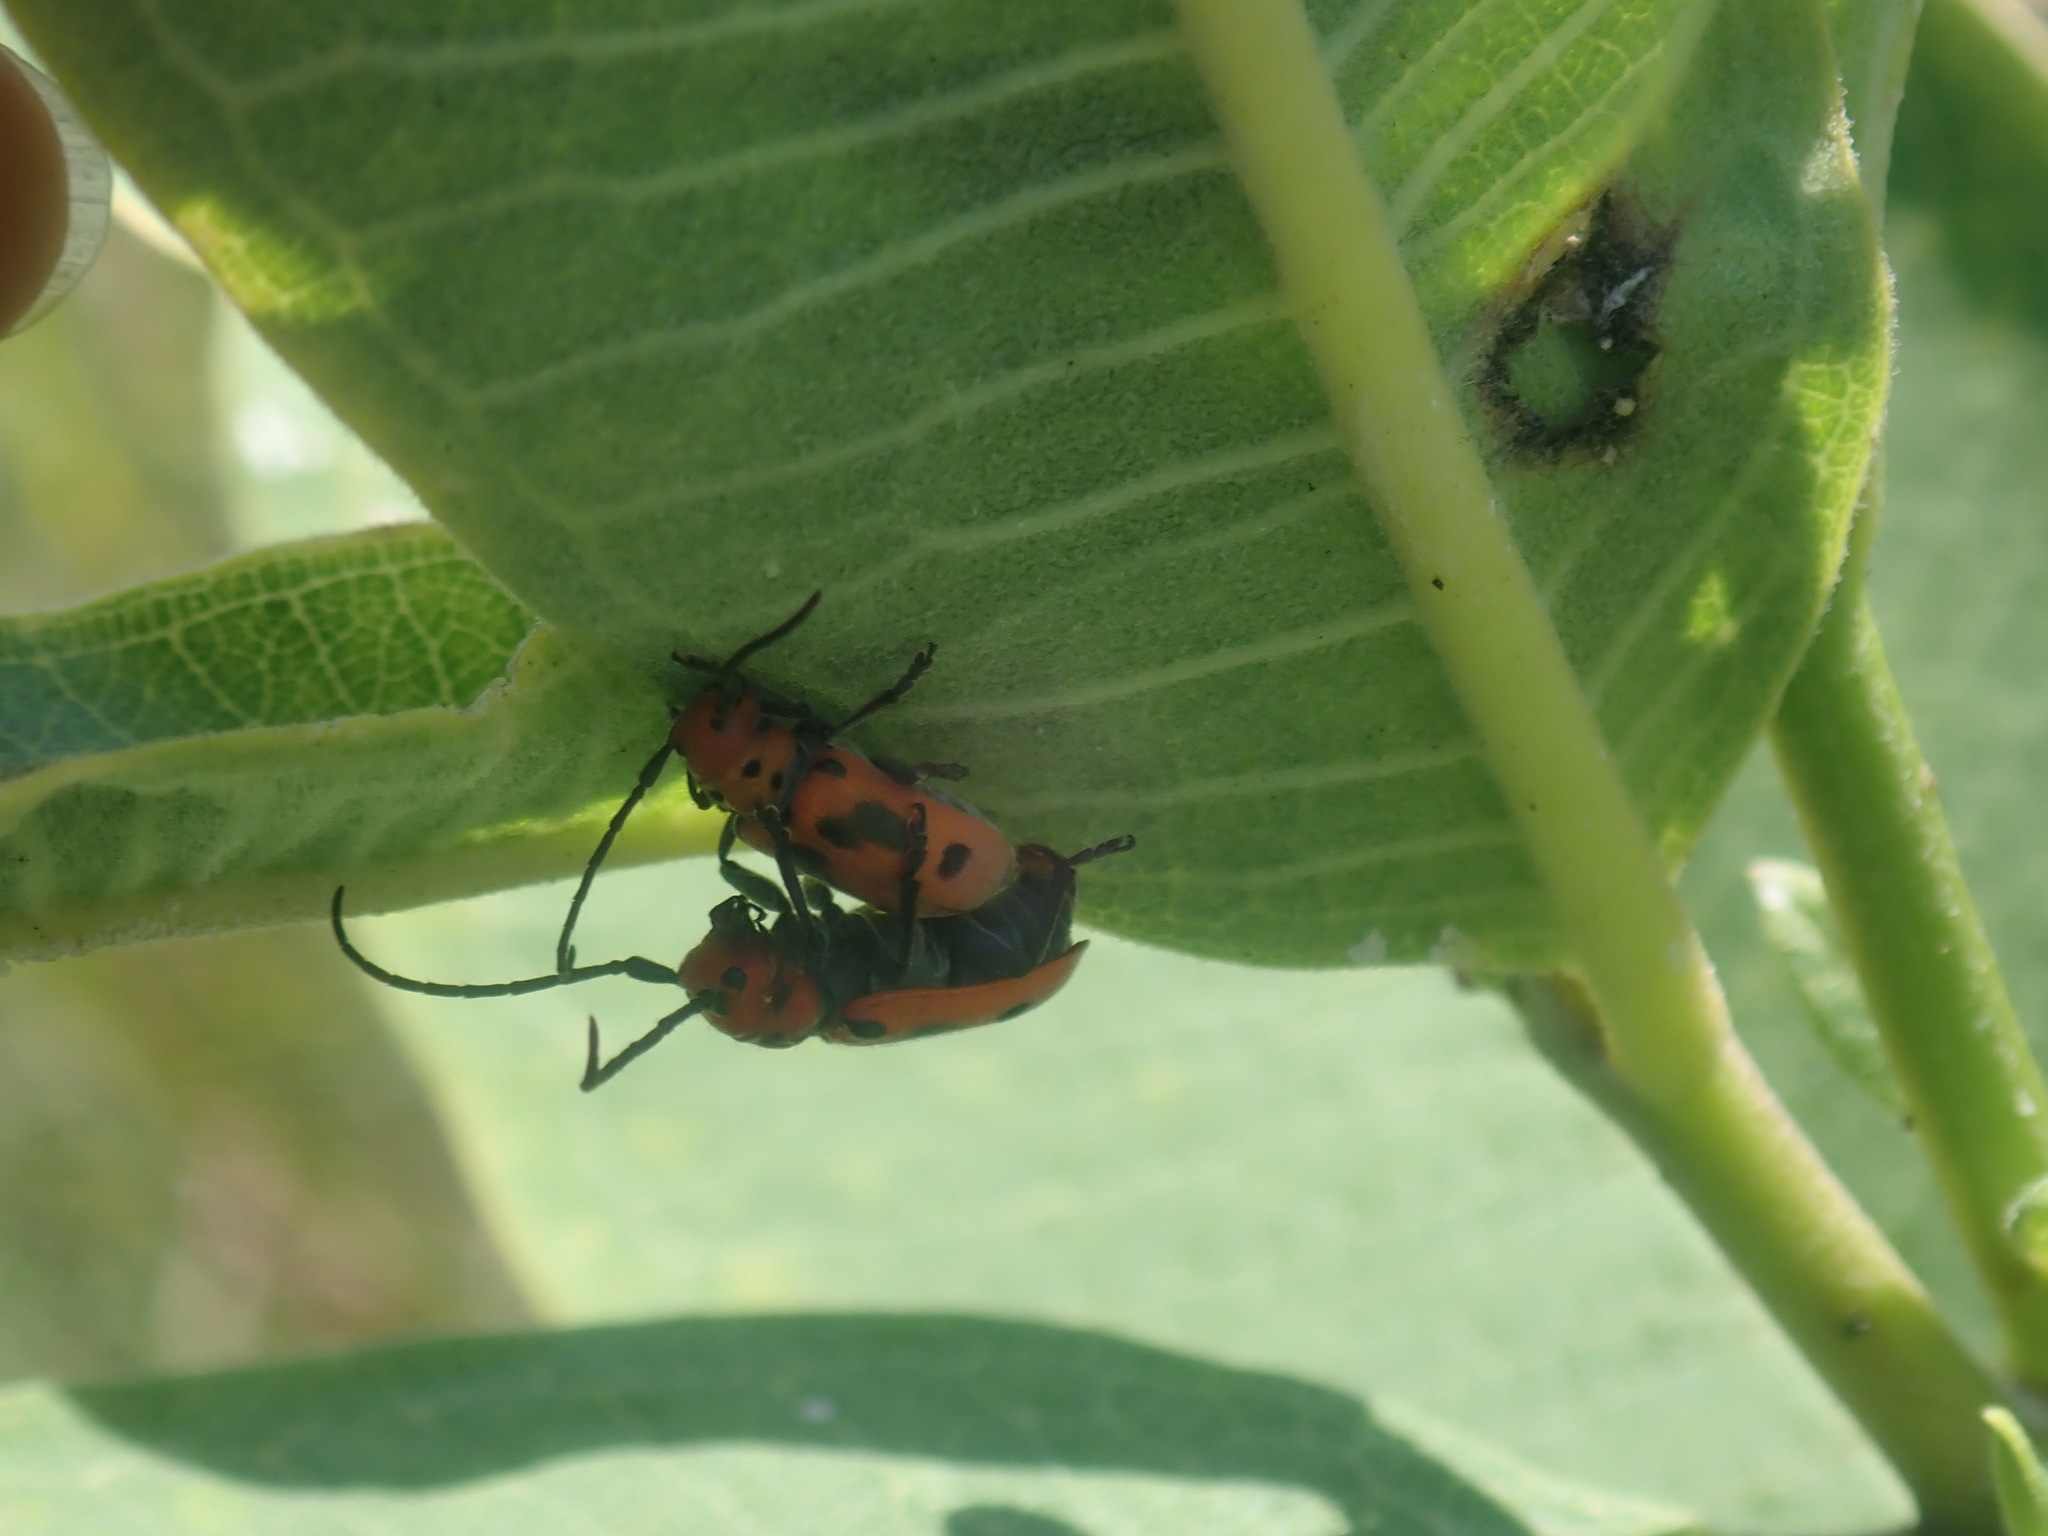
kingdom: Animalia
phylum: Arthropoda
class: Insecta
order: Coleoptera
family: Cerambycidae
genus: Tetraopes
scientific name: Tetraopes tetrophthalmus
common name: Red milkweed beetle
